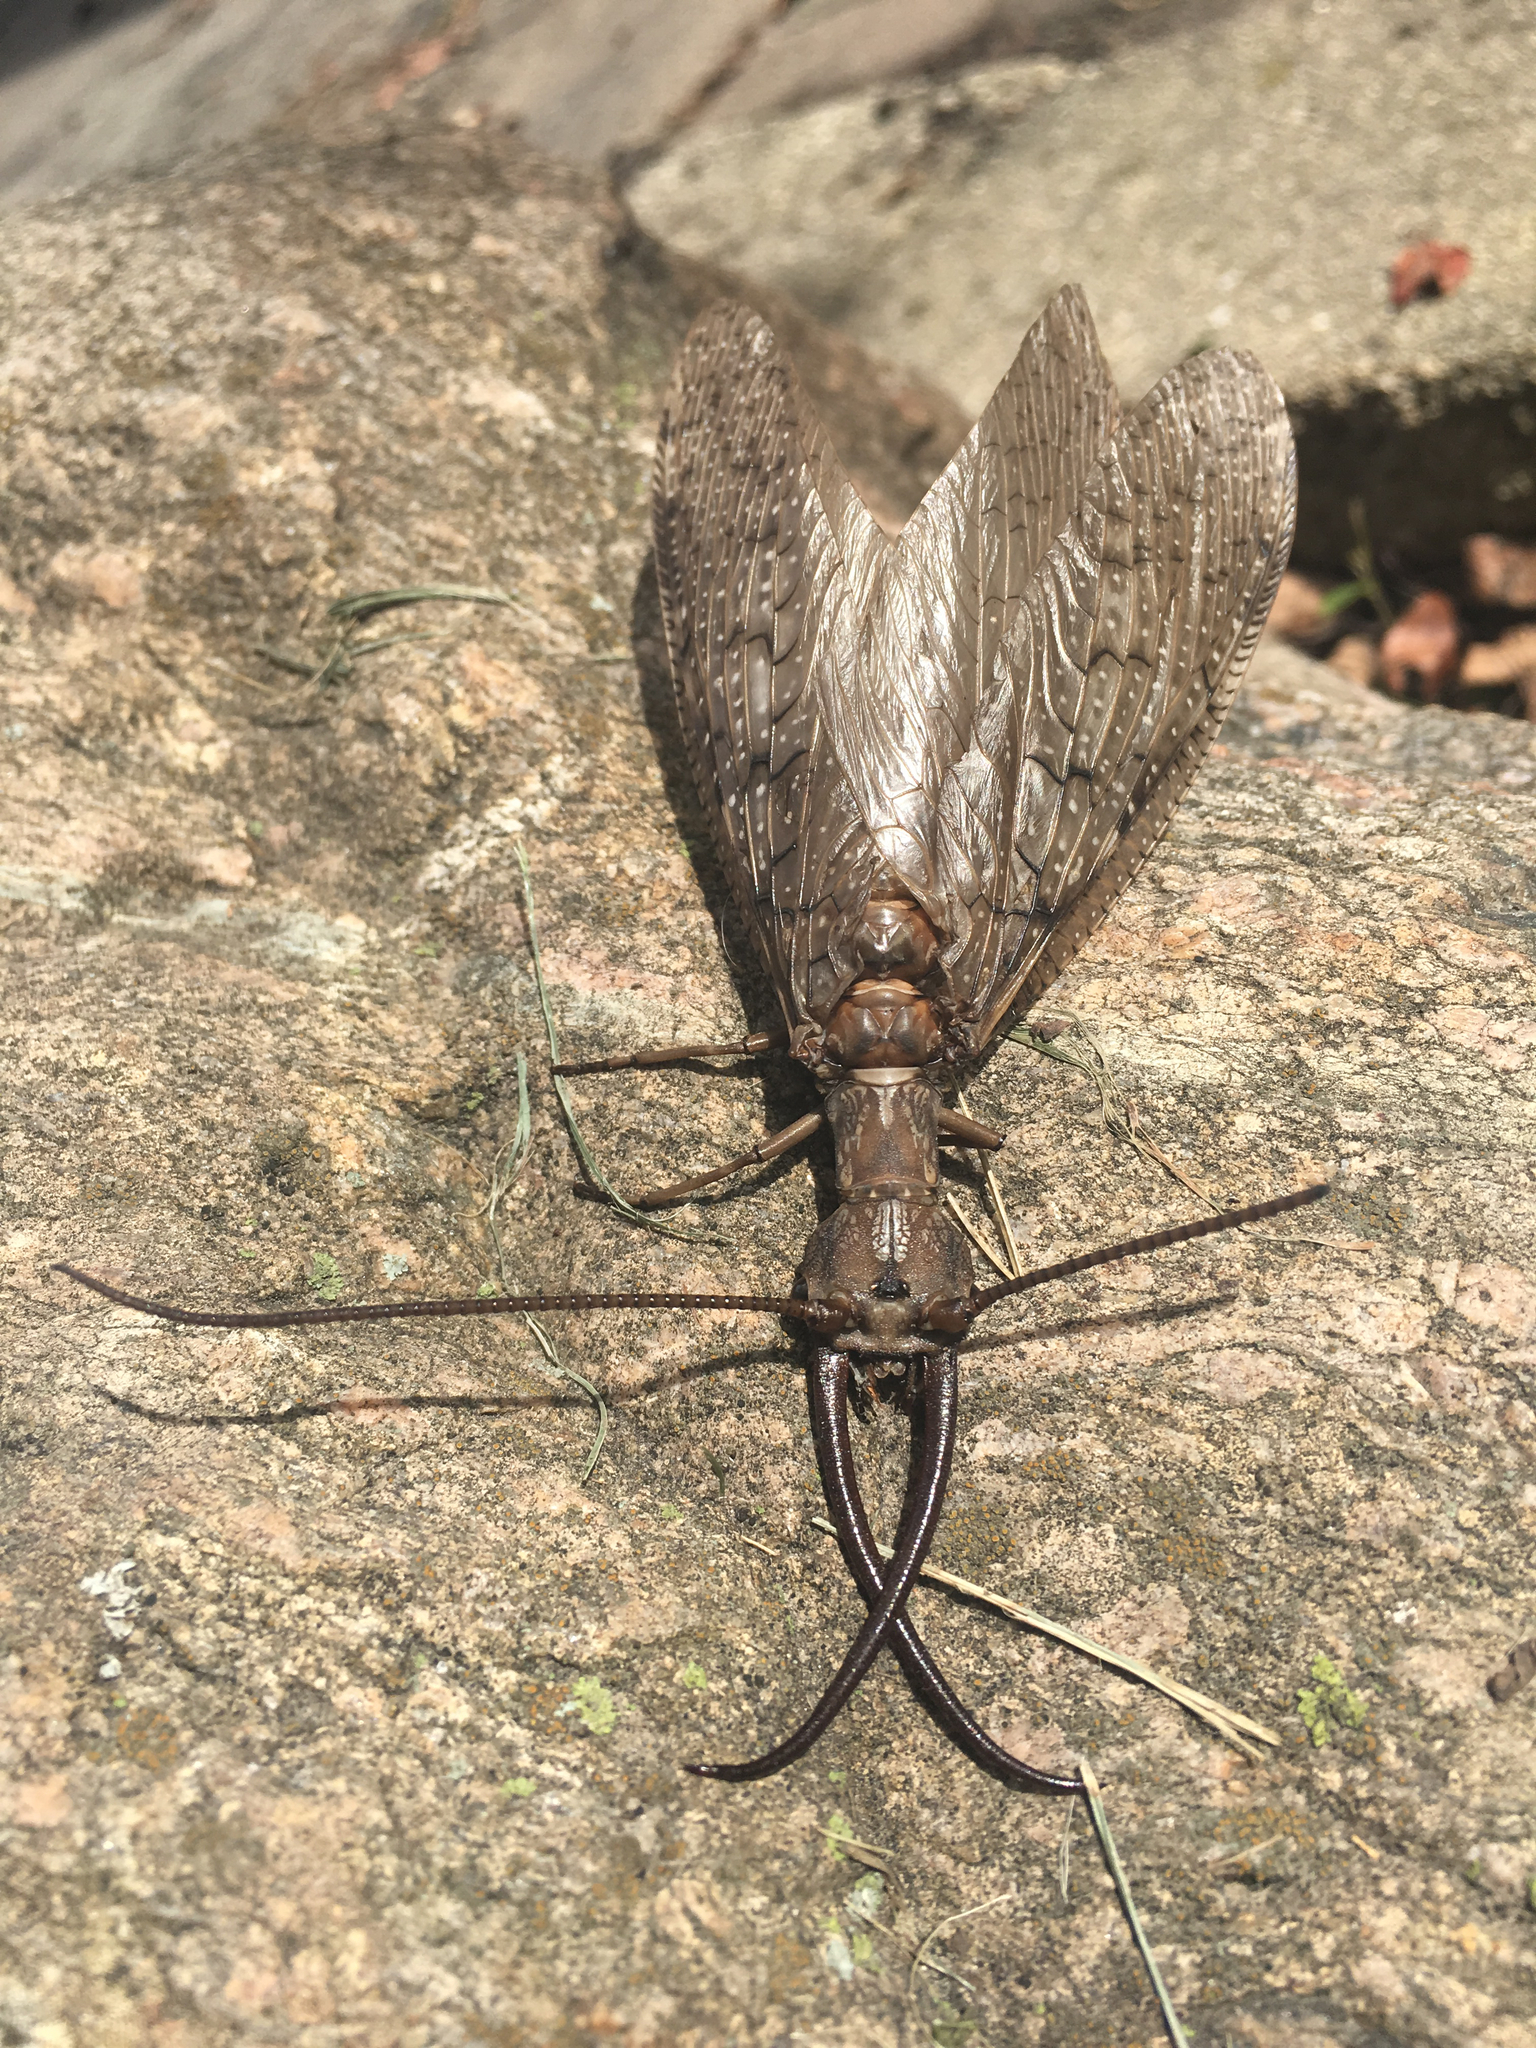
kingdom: Animalia
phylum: Arthropoda
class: Insecta
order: Megaloptera
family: Corydalidae
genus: Corydalus
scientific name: Corydalus cornutus
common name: Dobsonfly
